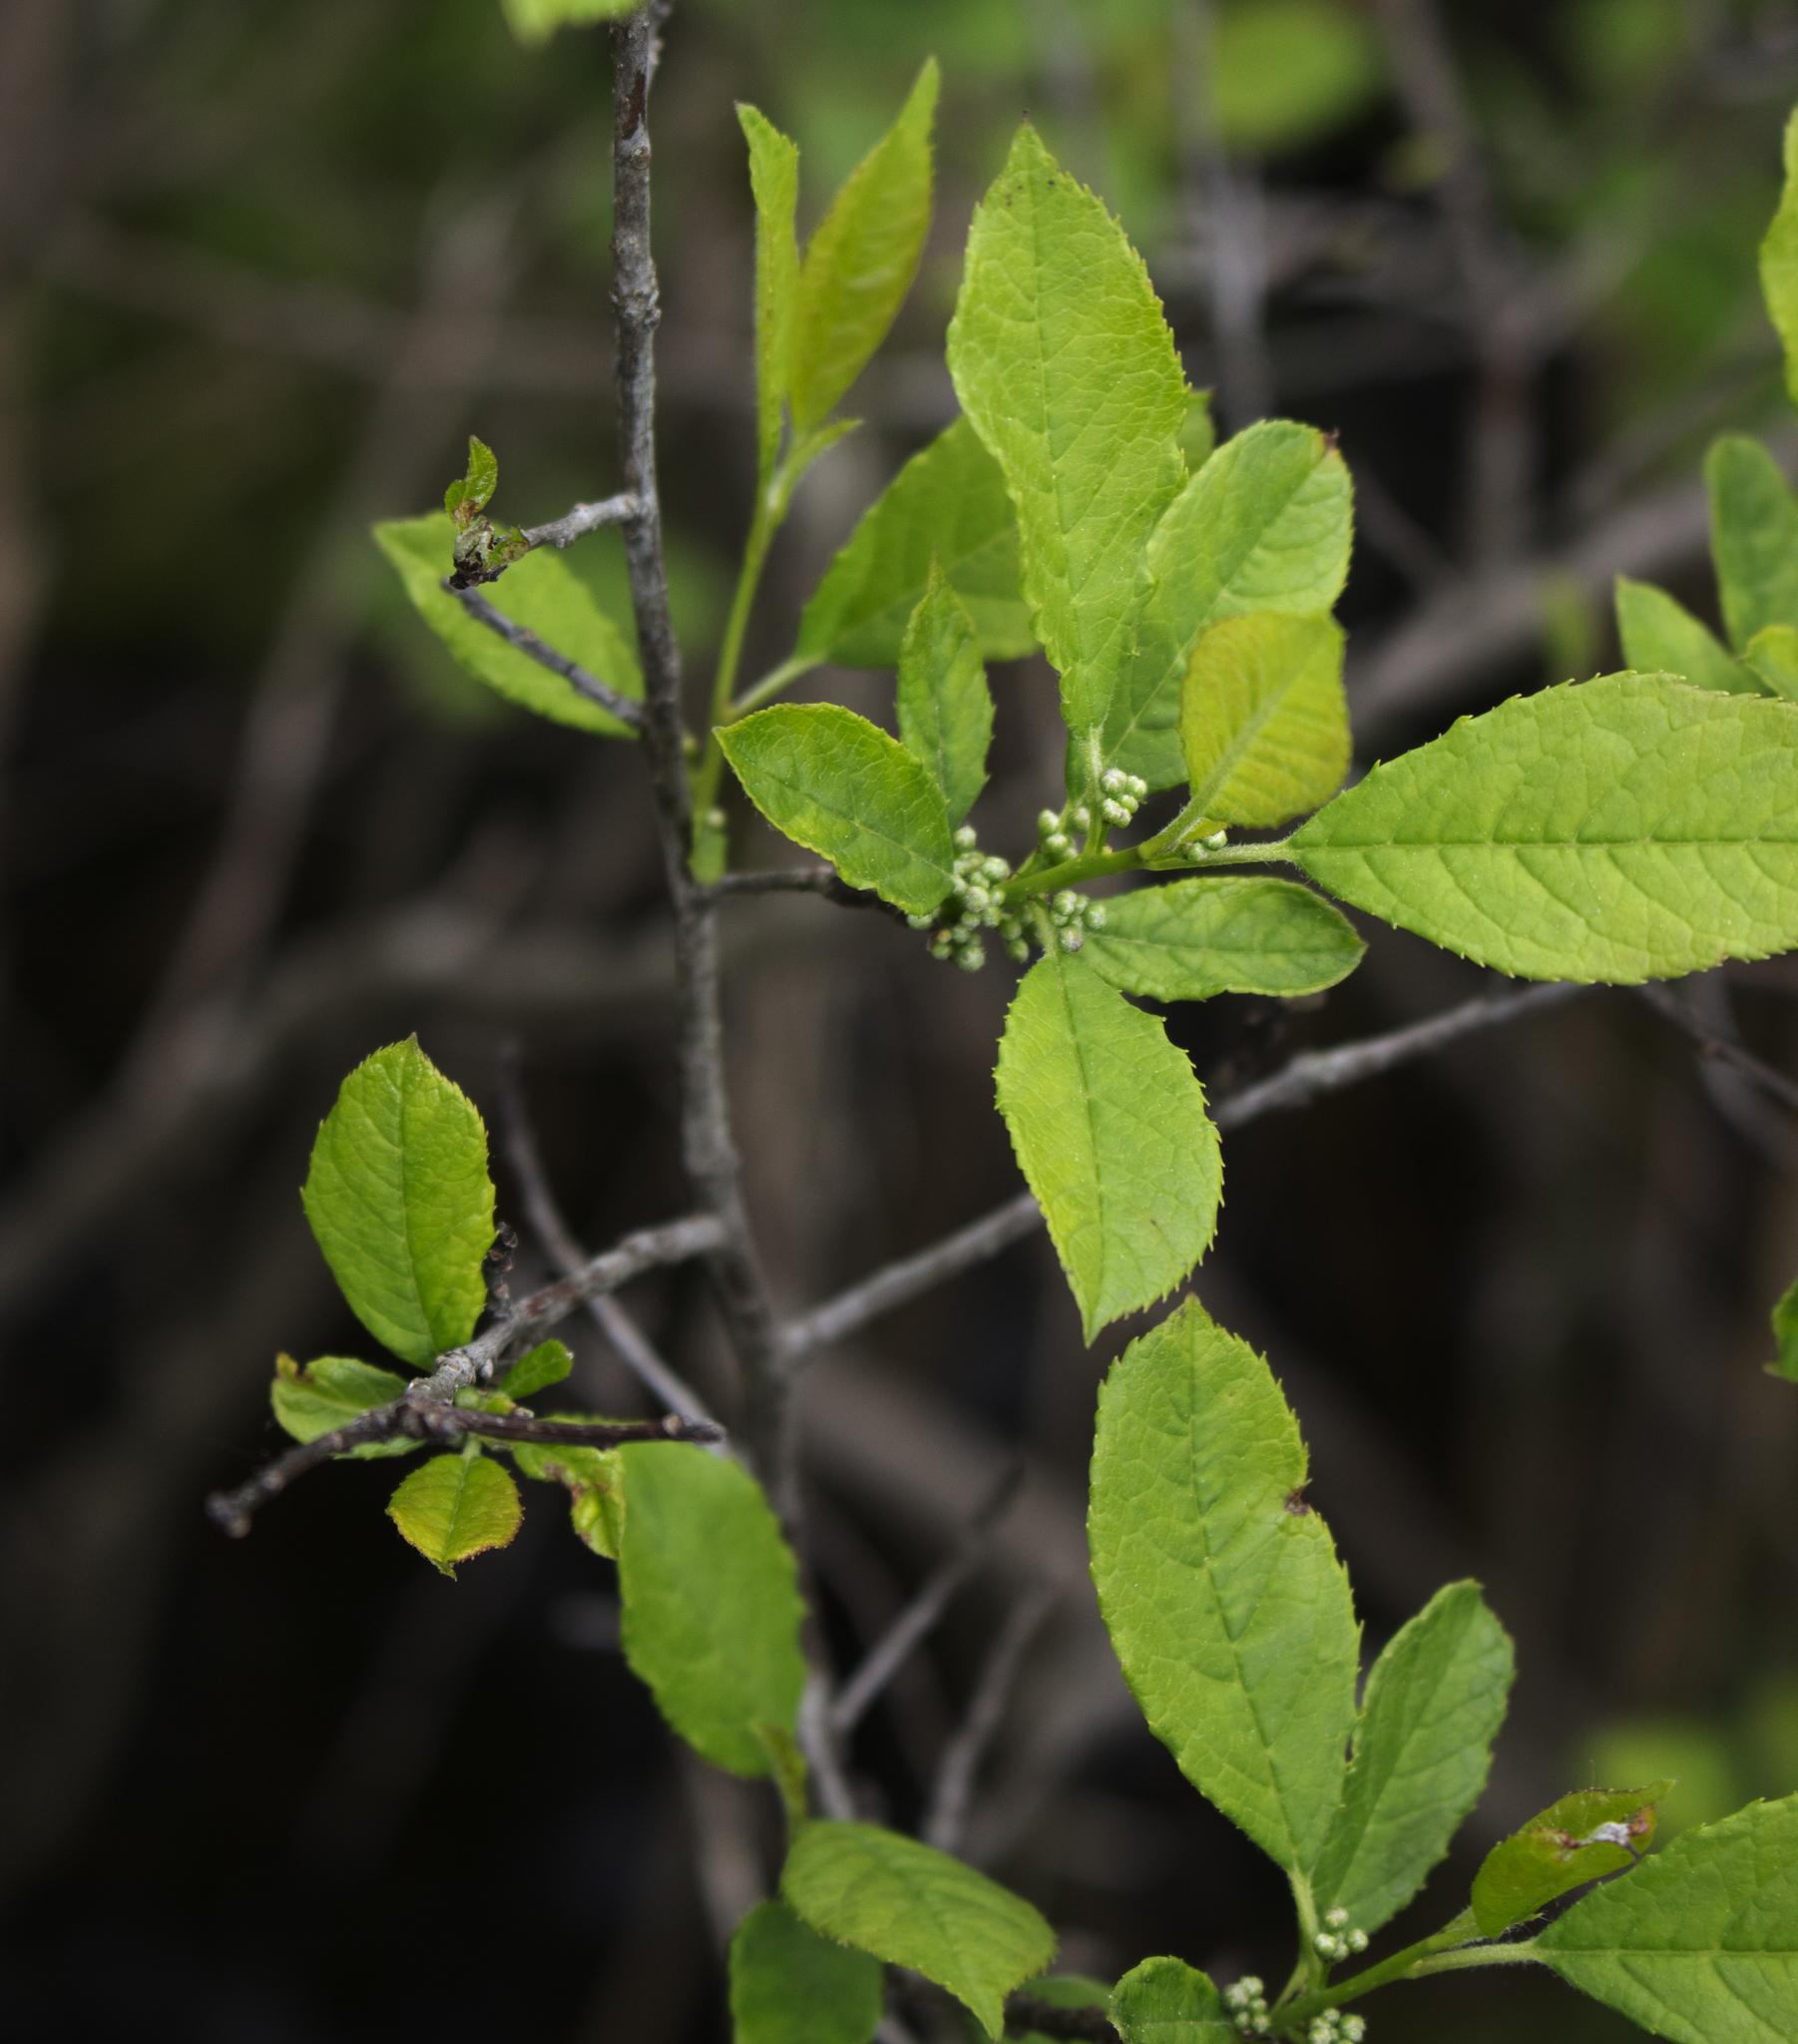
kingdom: Plantae
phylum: Tracheophyta
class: Magnoliopsida
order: Aquifoliales
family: Aquifoliaceae
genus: Ilex
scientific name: Ilex verticillata
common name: Virginia winterberry
